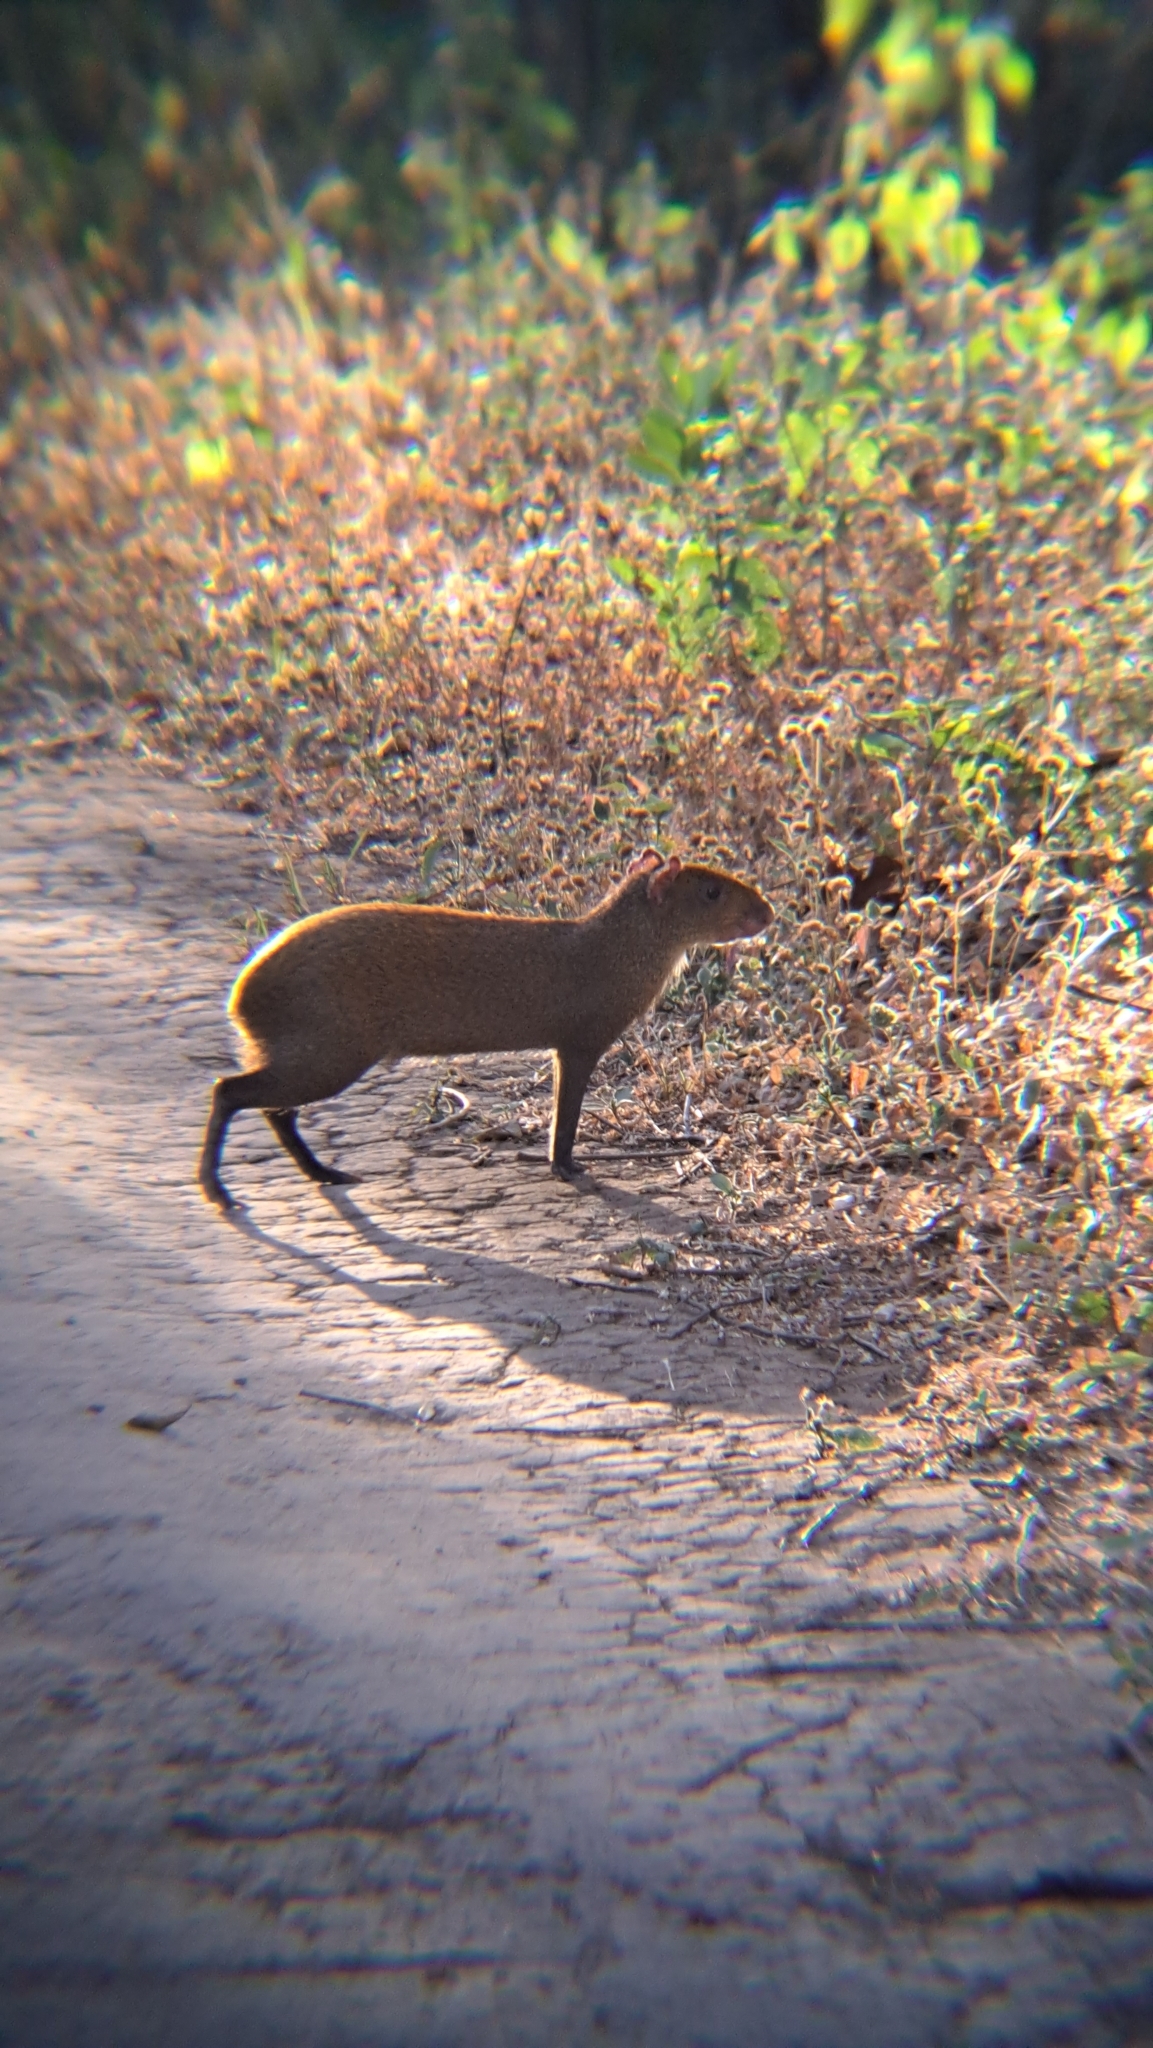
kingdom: Animalia
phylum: Chordata
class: Mammalia
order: Rodentia
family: Dasyproctidae
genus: Dasyprocta
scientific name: Dasyprocta punctata
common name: Central american agouti
